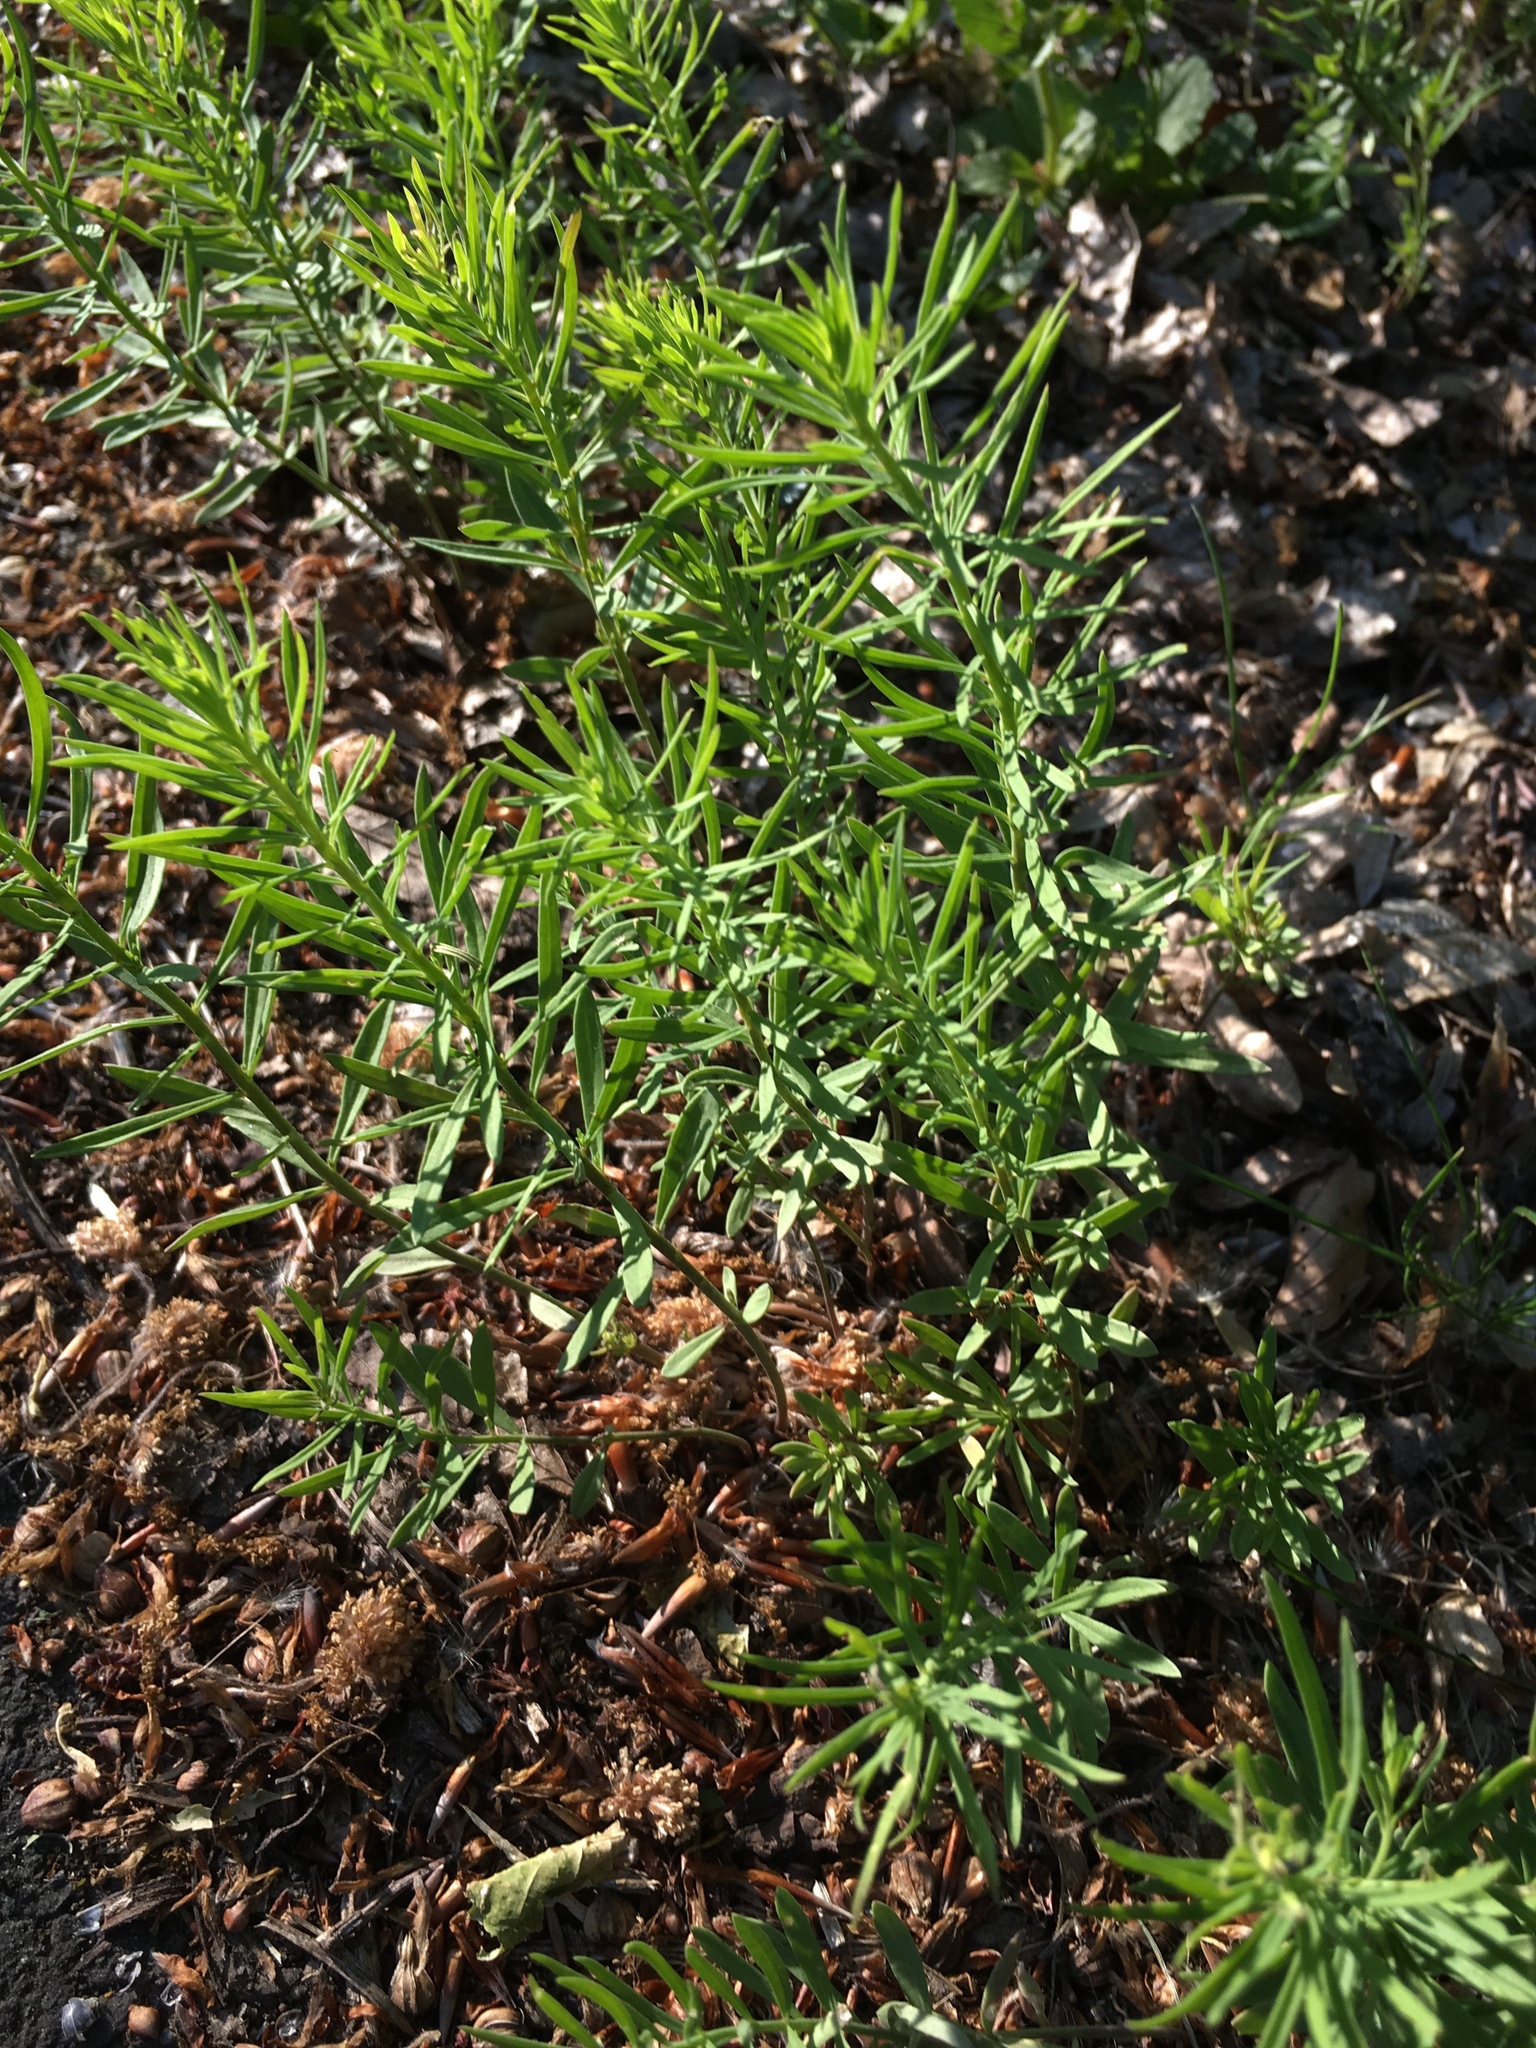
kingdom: Plantae
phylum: Tracheophyta
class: Magnoliopsida
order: Lamiales
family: Plantaginaceae
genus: Linaria
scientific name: Linaria vulgaris
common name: Butter and eggs
